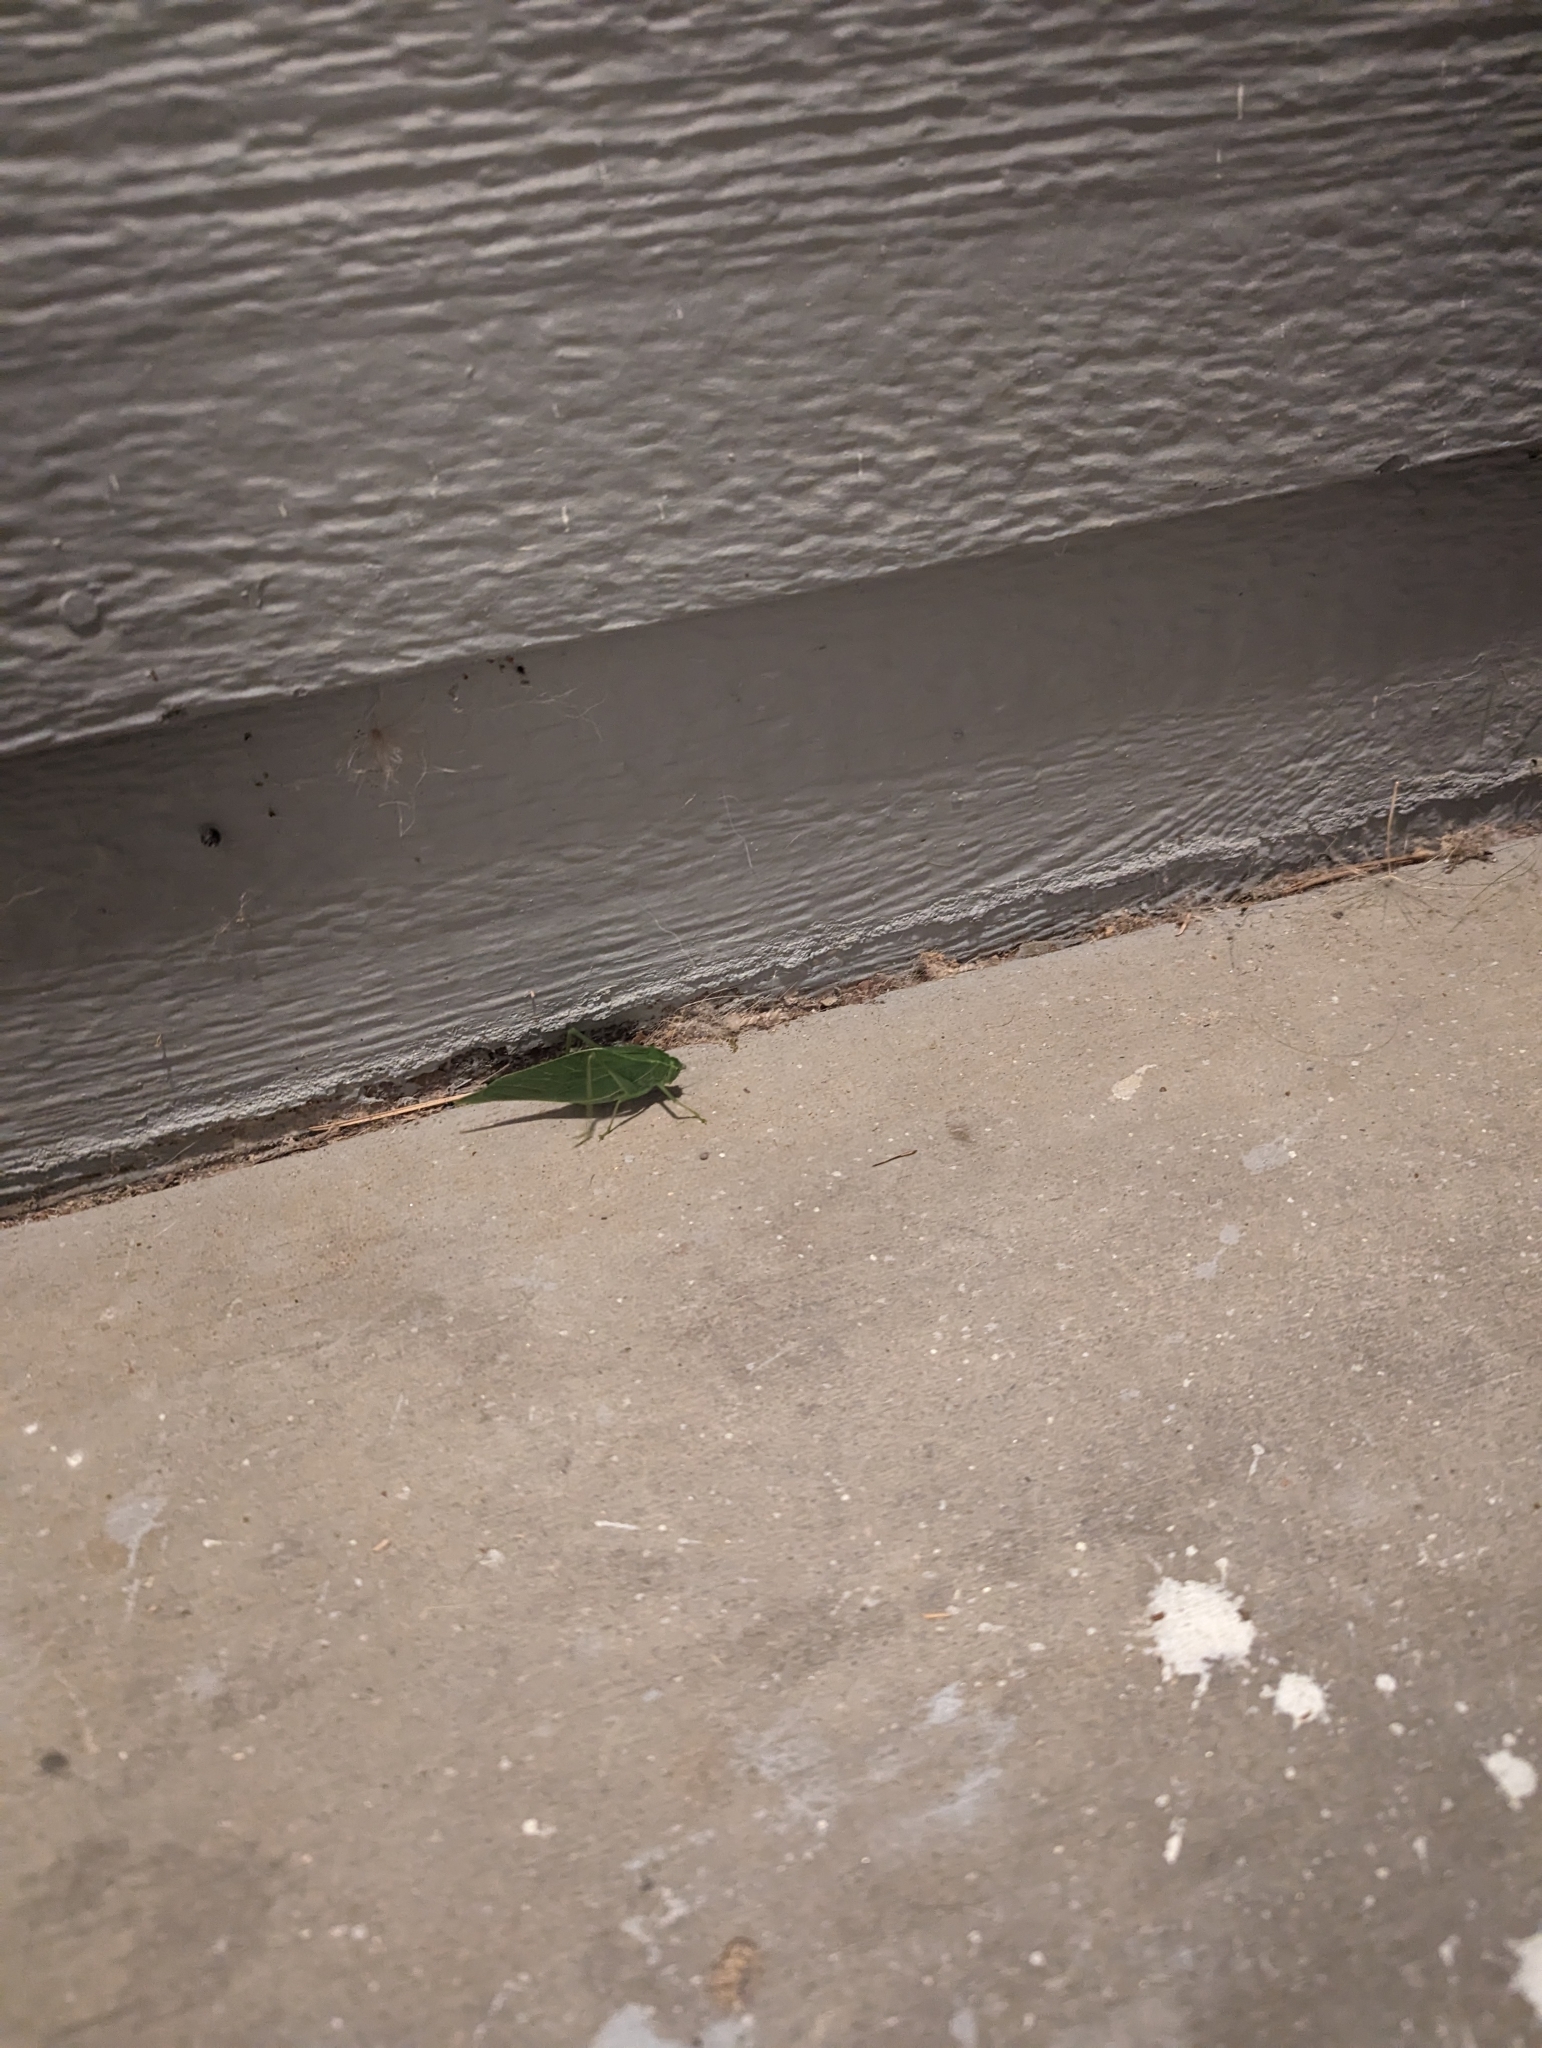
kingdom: Animalia
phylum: Arthropoda
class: Insecta
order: Orthoptera
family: Tettigoniidae
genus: Microcentrum
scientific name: Microcentrum rhombifolium
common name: Broad-winged katydid
